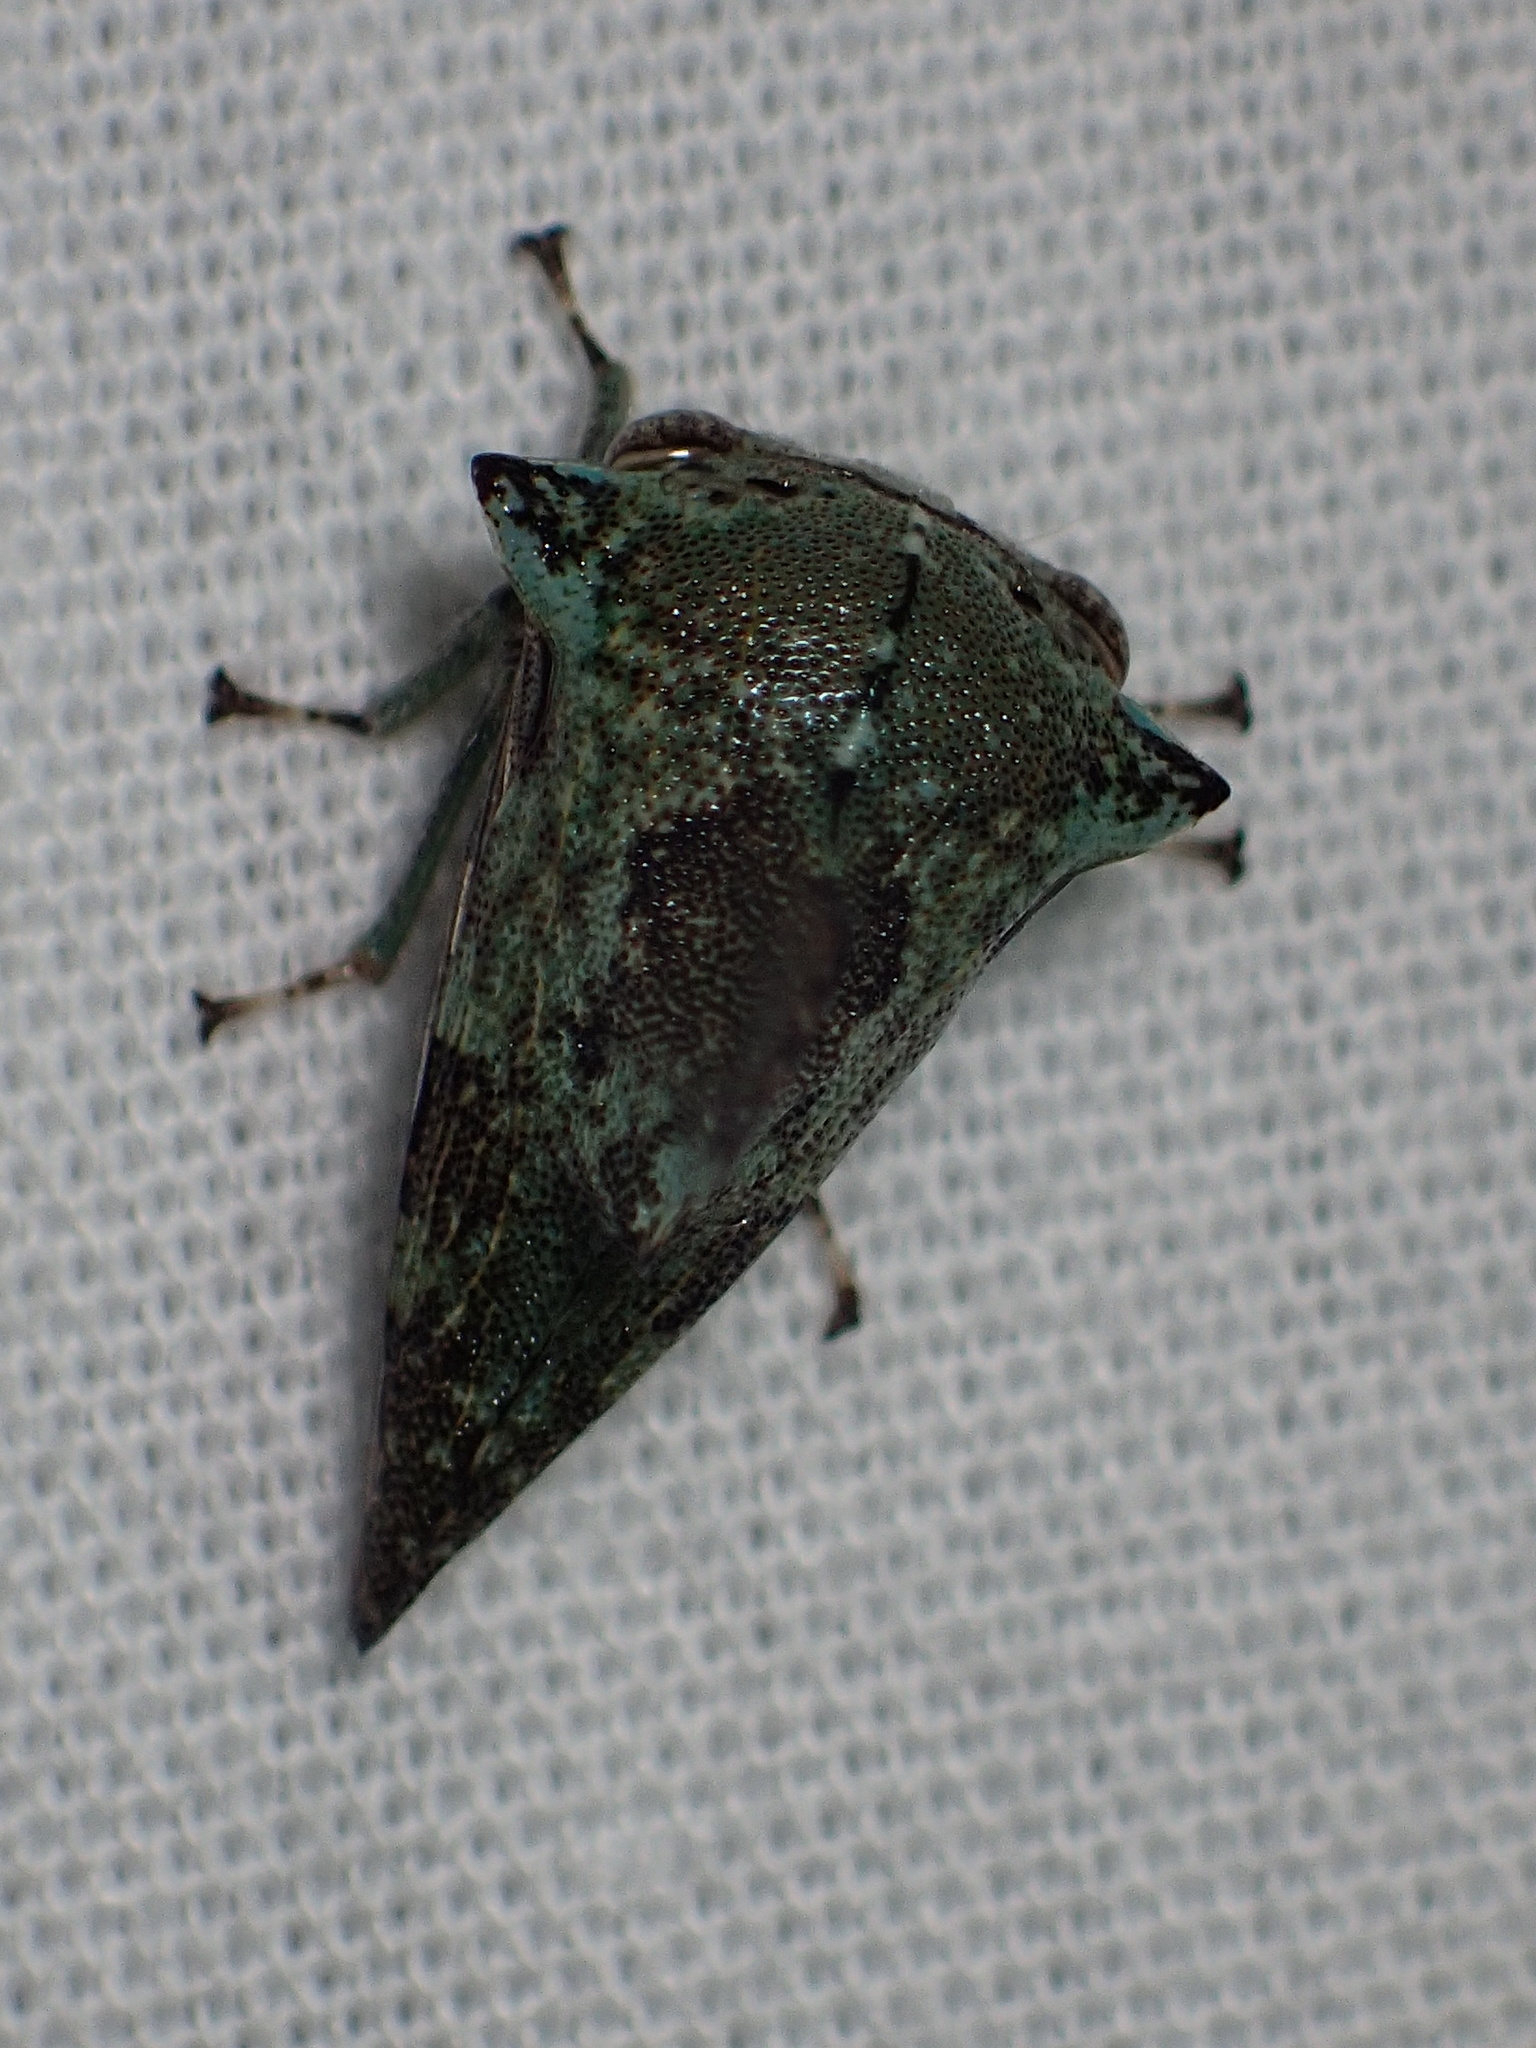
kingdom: Animalia
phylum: Arthropoda
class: Insecta
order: Hemiptera
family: Membracidae
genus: Telamona
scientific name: Telamona concava
